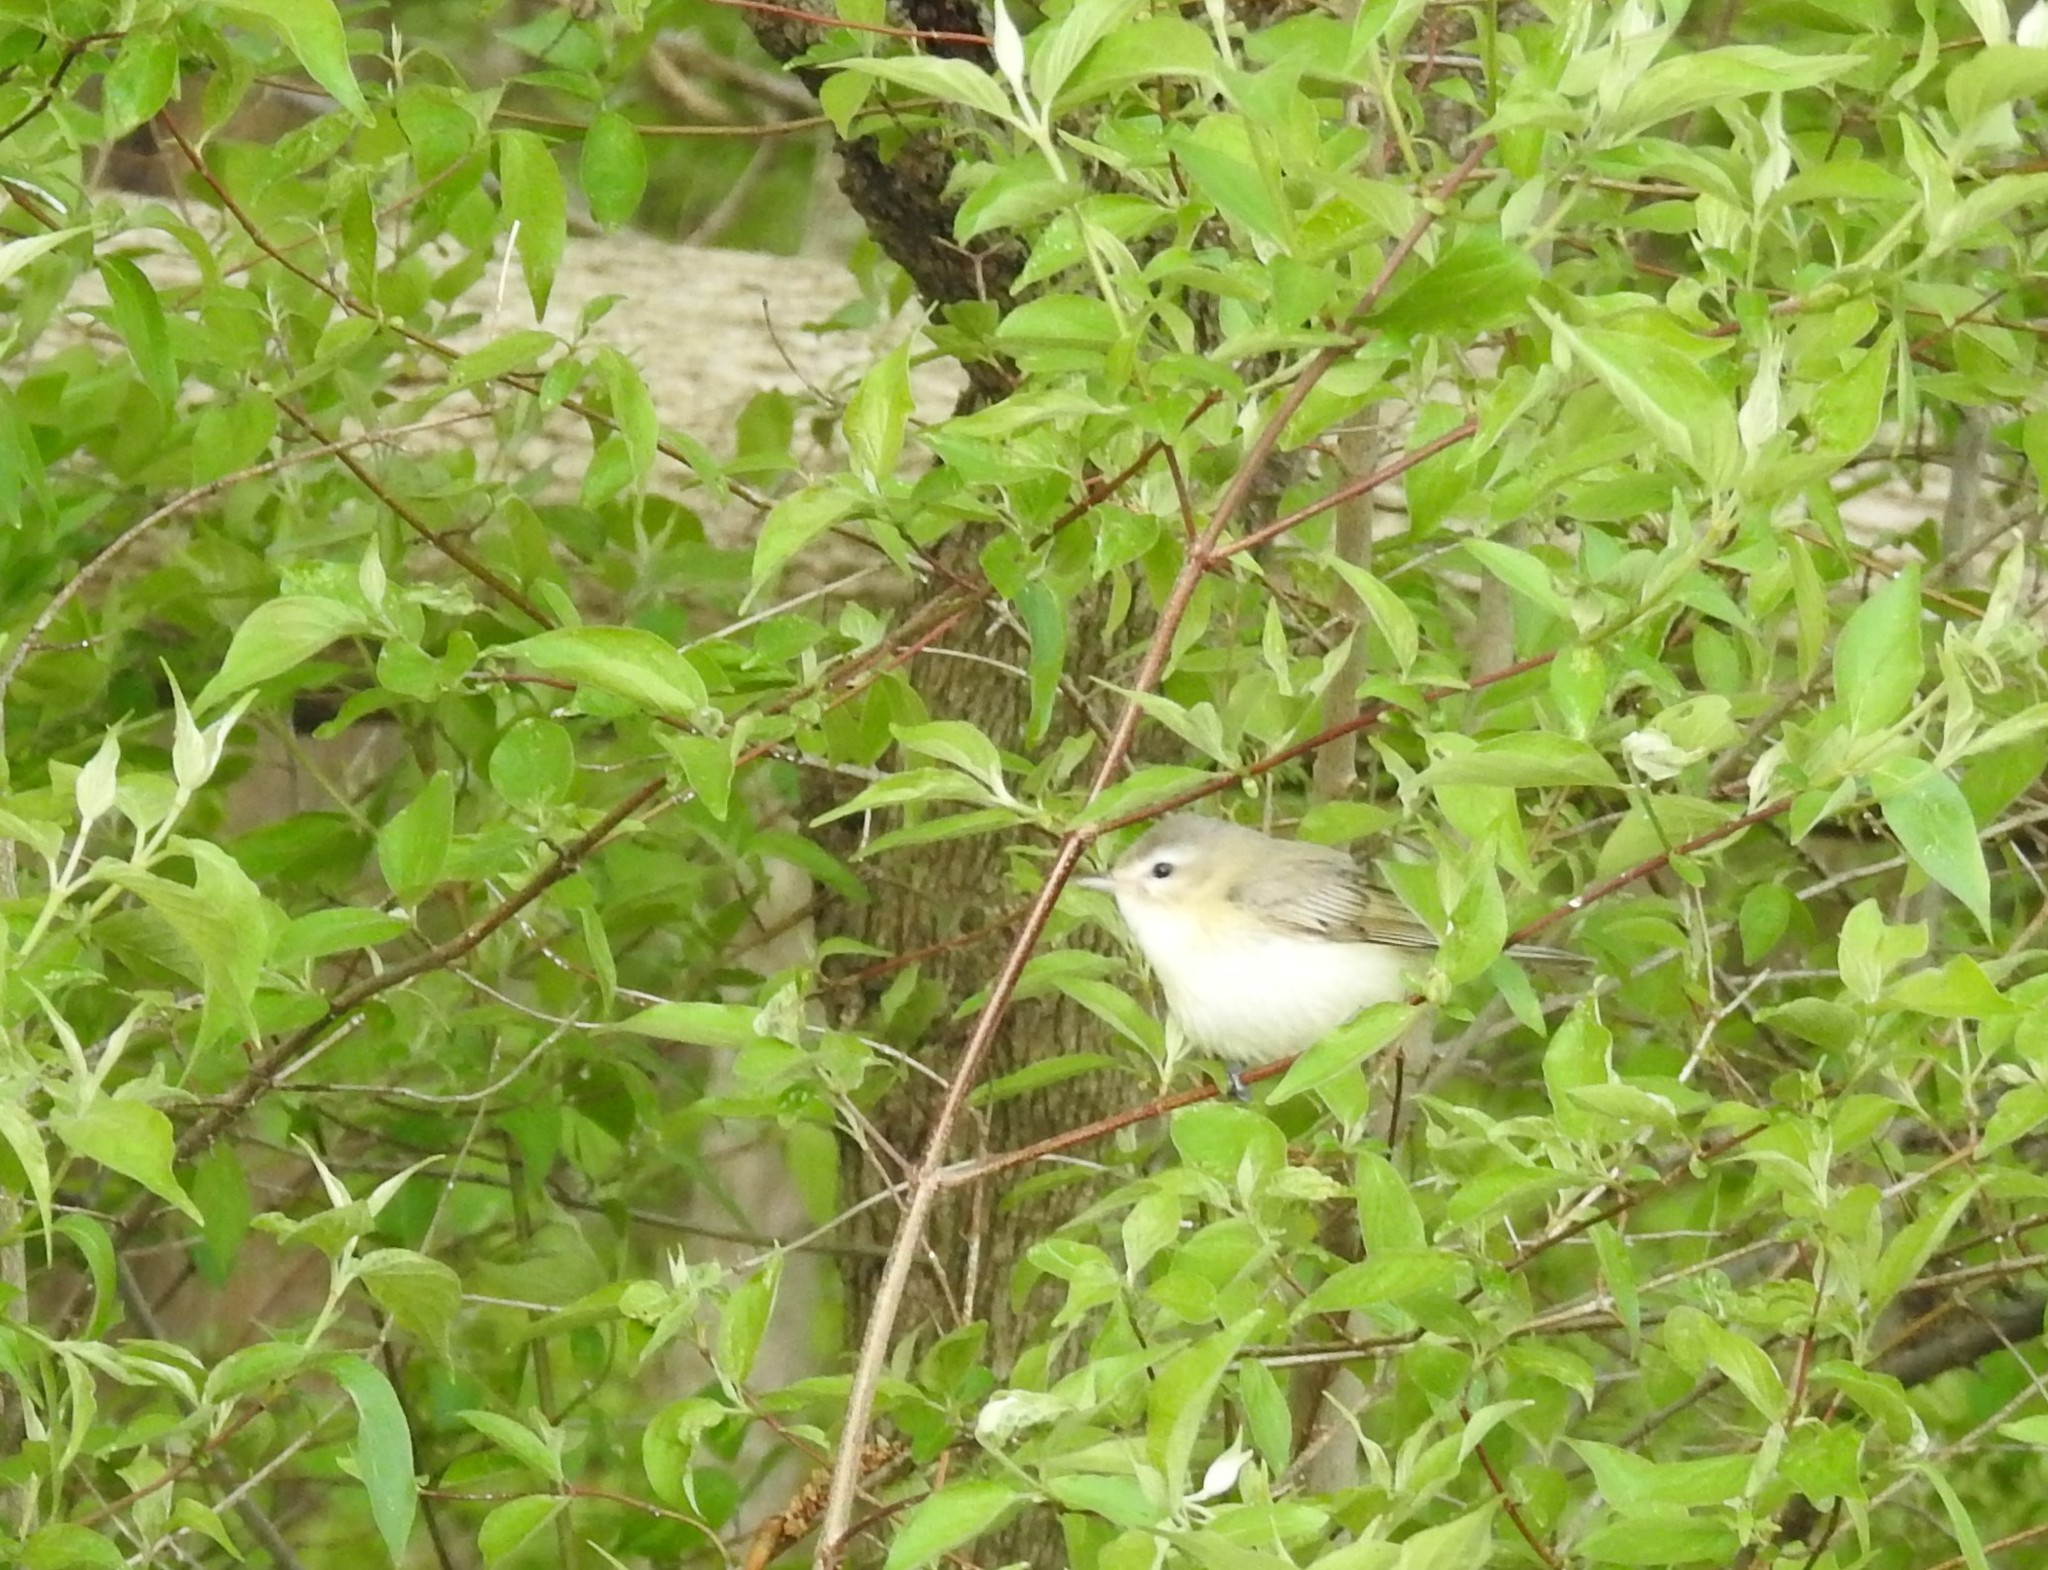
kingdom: Animalia
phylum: Chordata
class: Aves
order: Passeriformes
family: Vireonidae
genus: Vireo
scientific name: Vireo gilvus
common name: Warbling vireo
